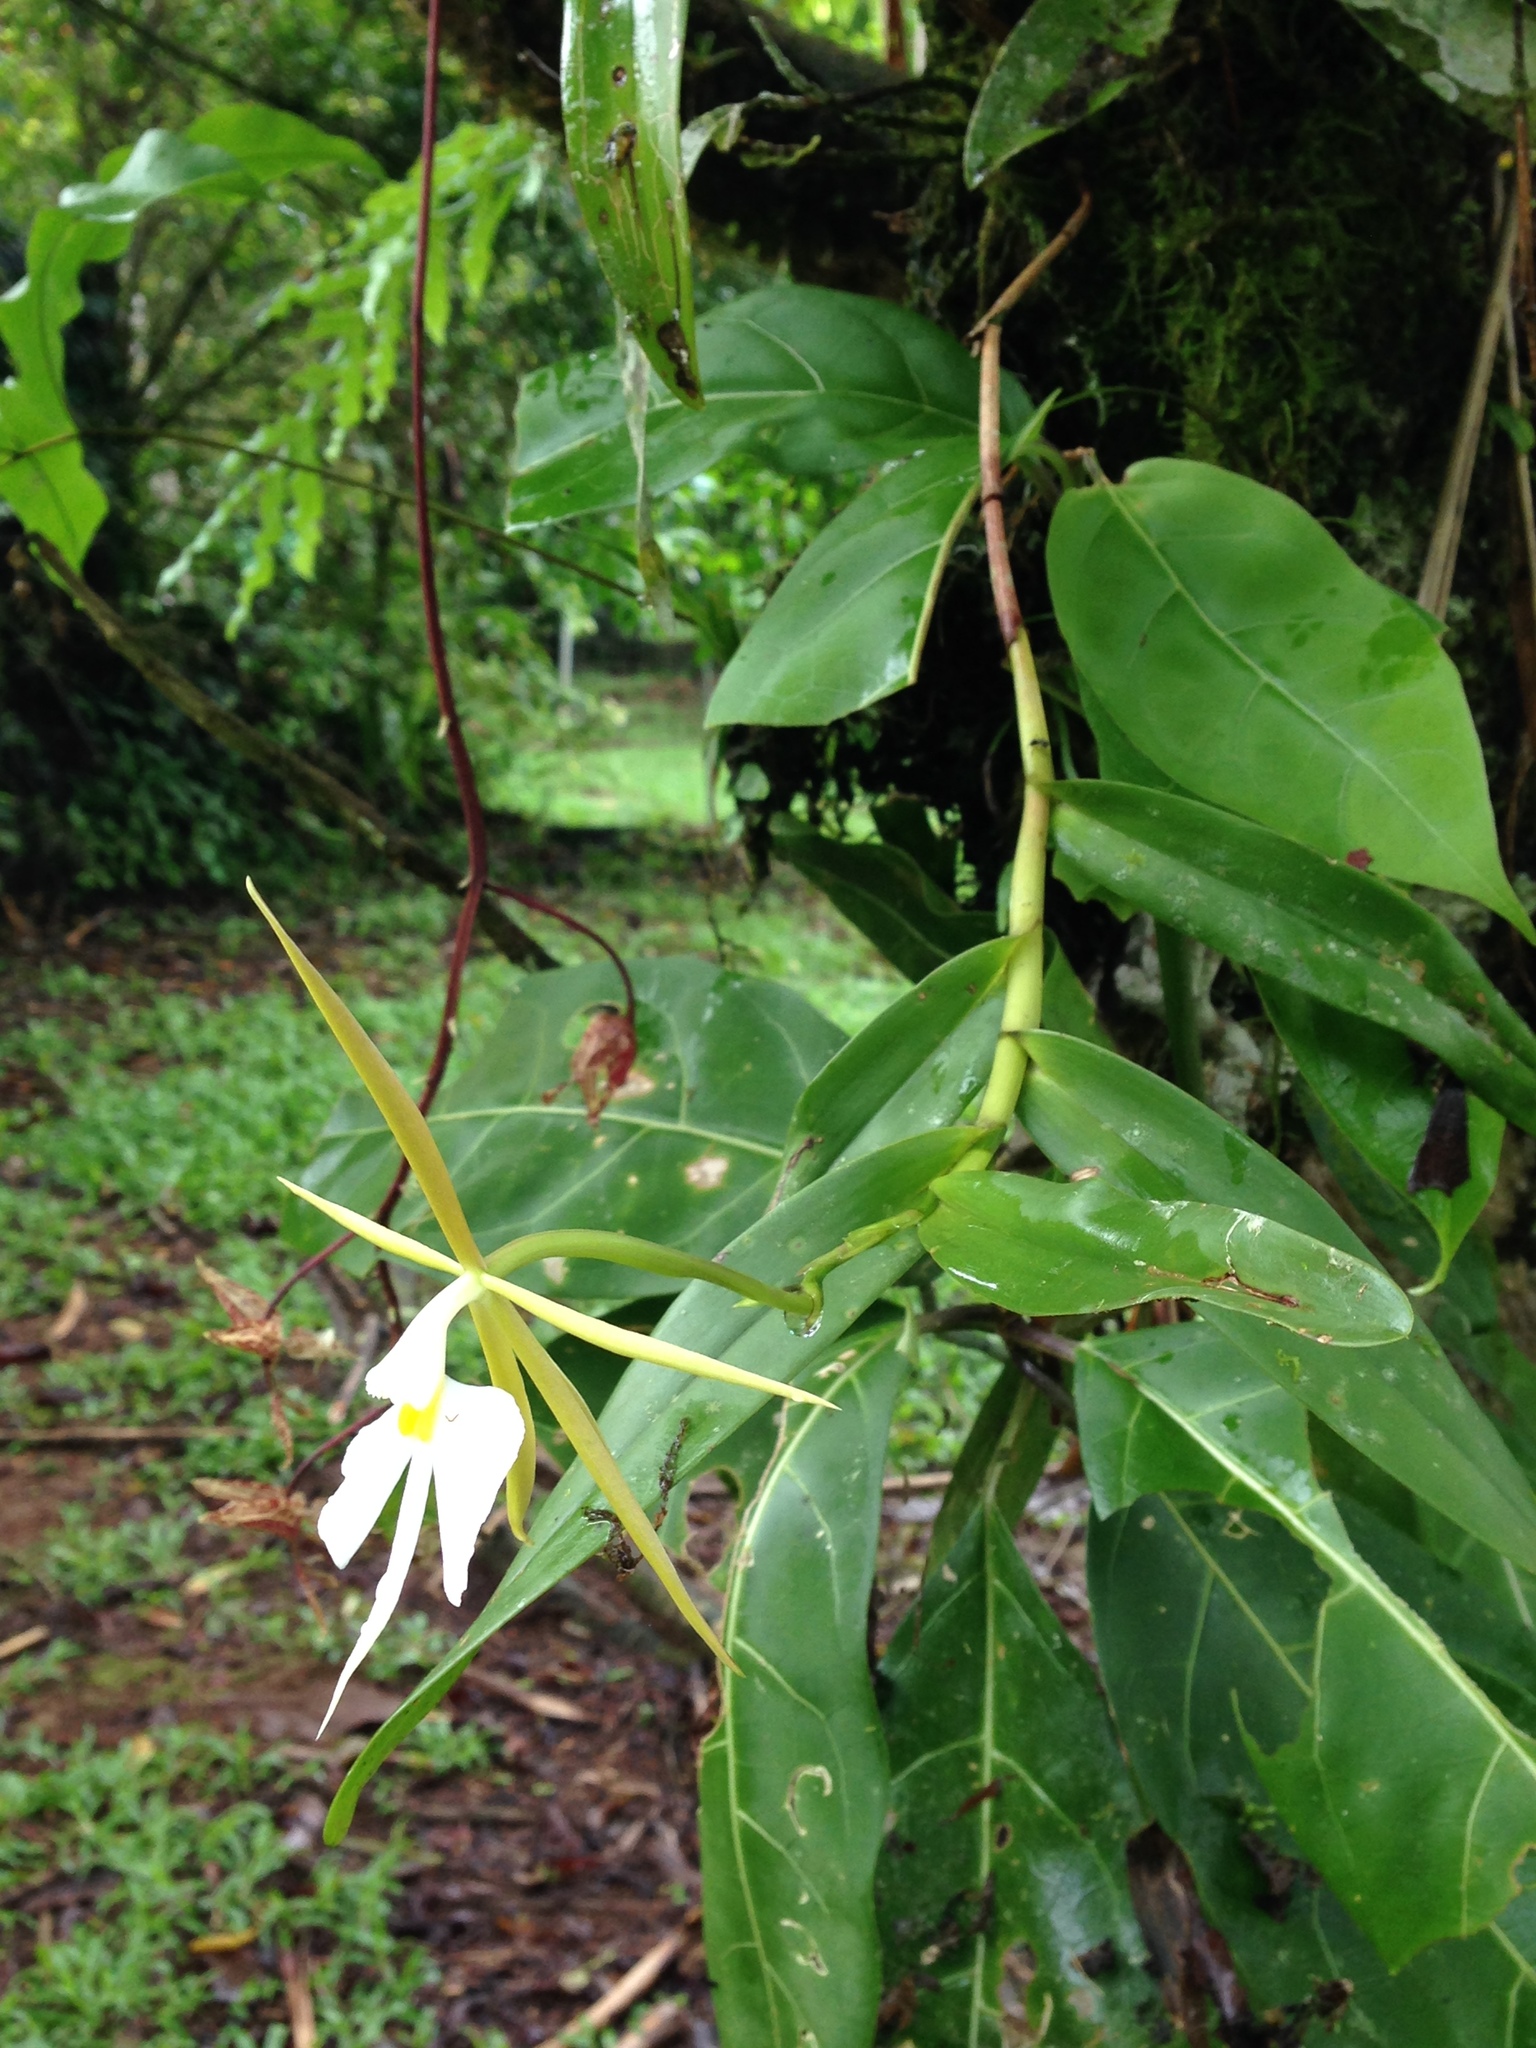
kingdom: Plantae
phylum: Tracheophyta
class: Liliopsida
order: Asparagales
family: Orchidaceae
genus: Epidendrum
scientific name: Epidendrum nocturnum
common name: Night scented orchid
